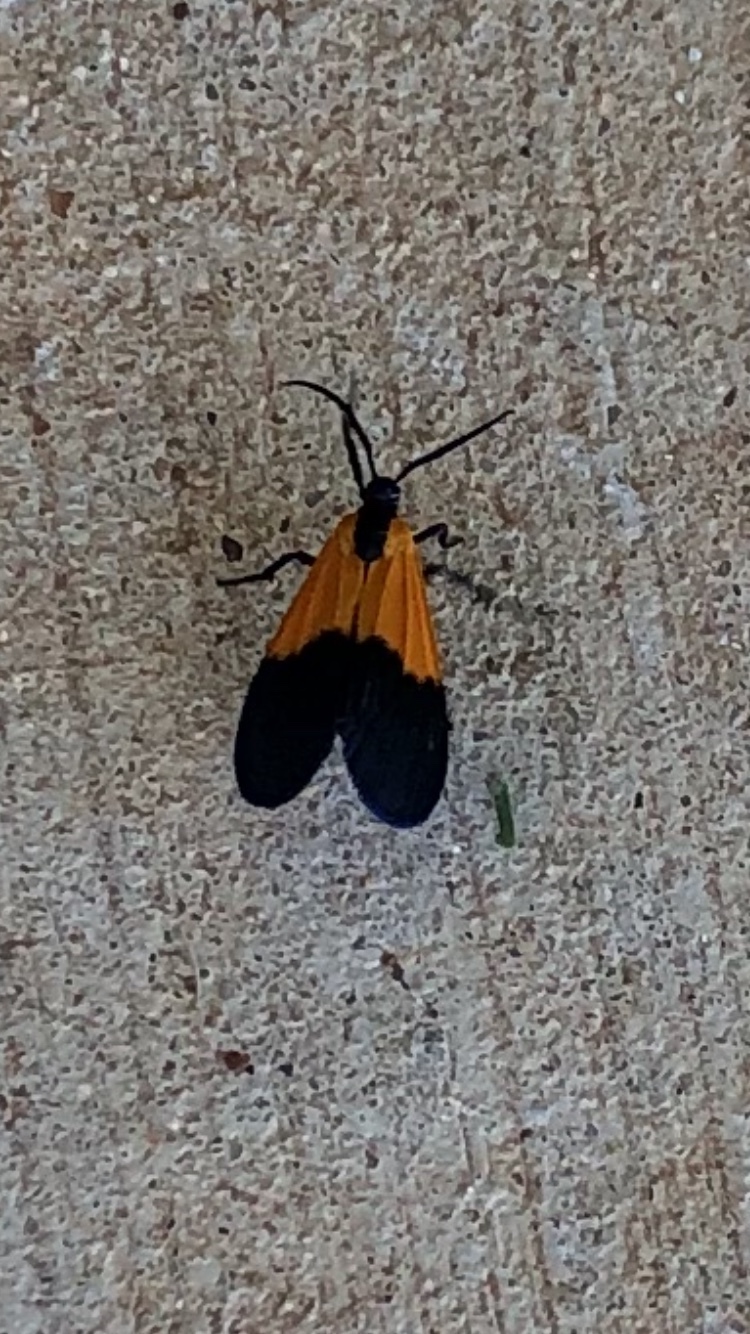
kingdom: Animalia
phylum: Arthropoda
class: Insecta
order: Lepidoptera
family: Erebidae
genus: Lycomorpha
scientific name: Lycomorpha pholus
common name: Black-and-yellow lichen moth
